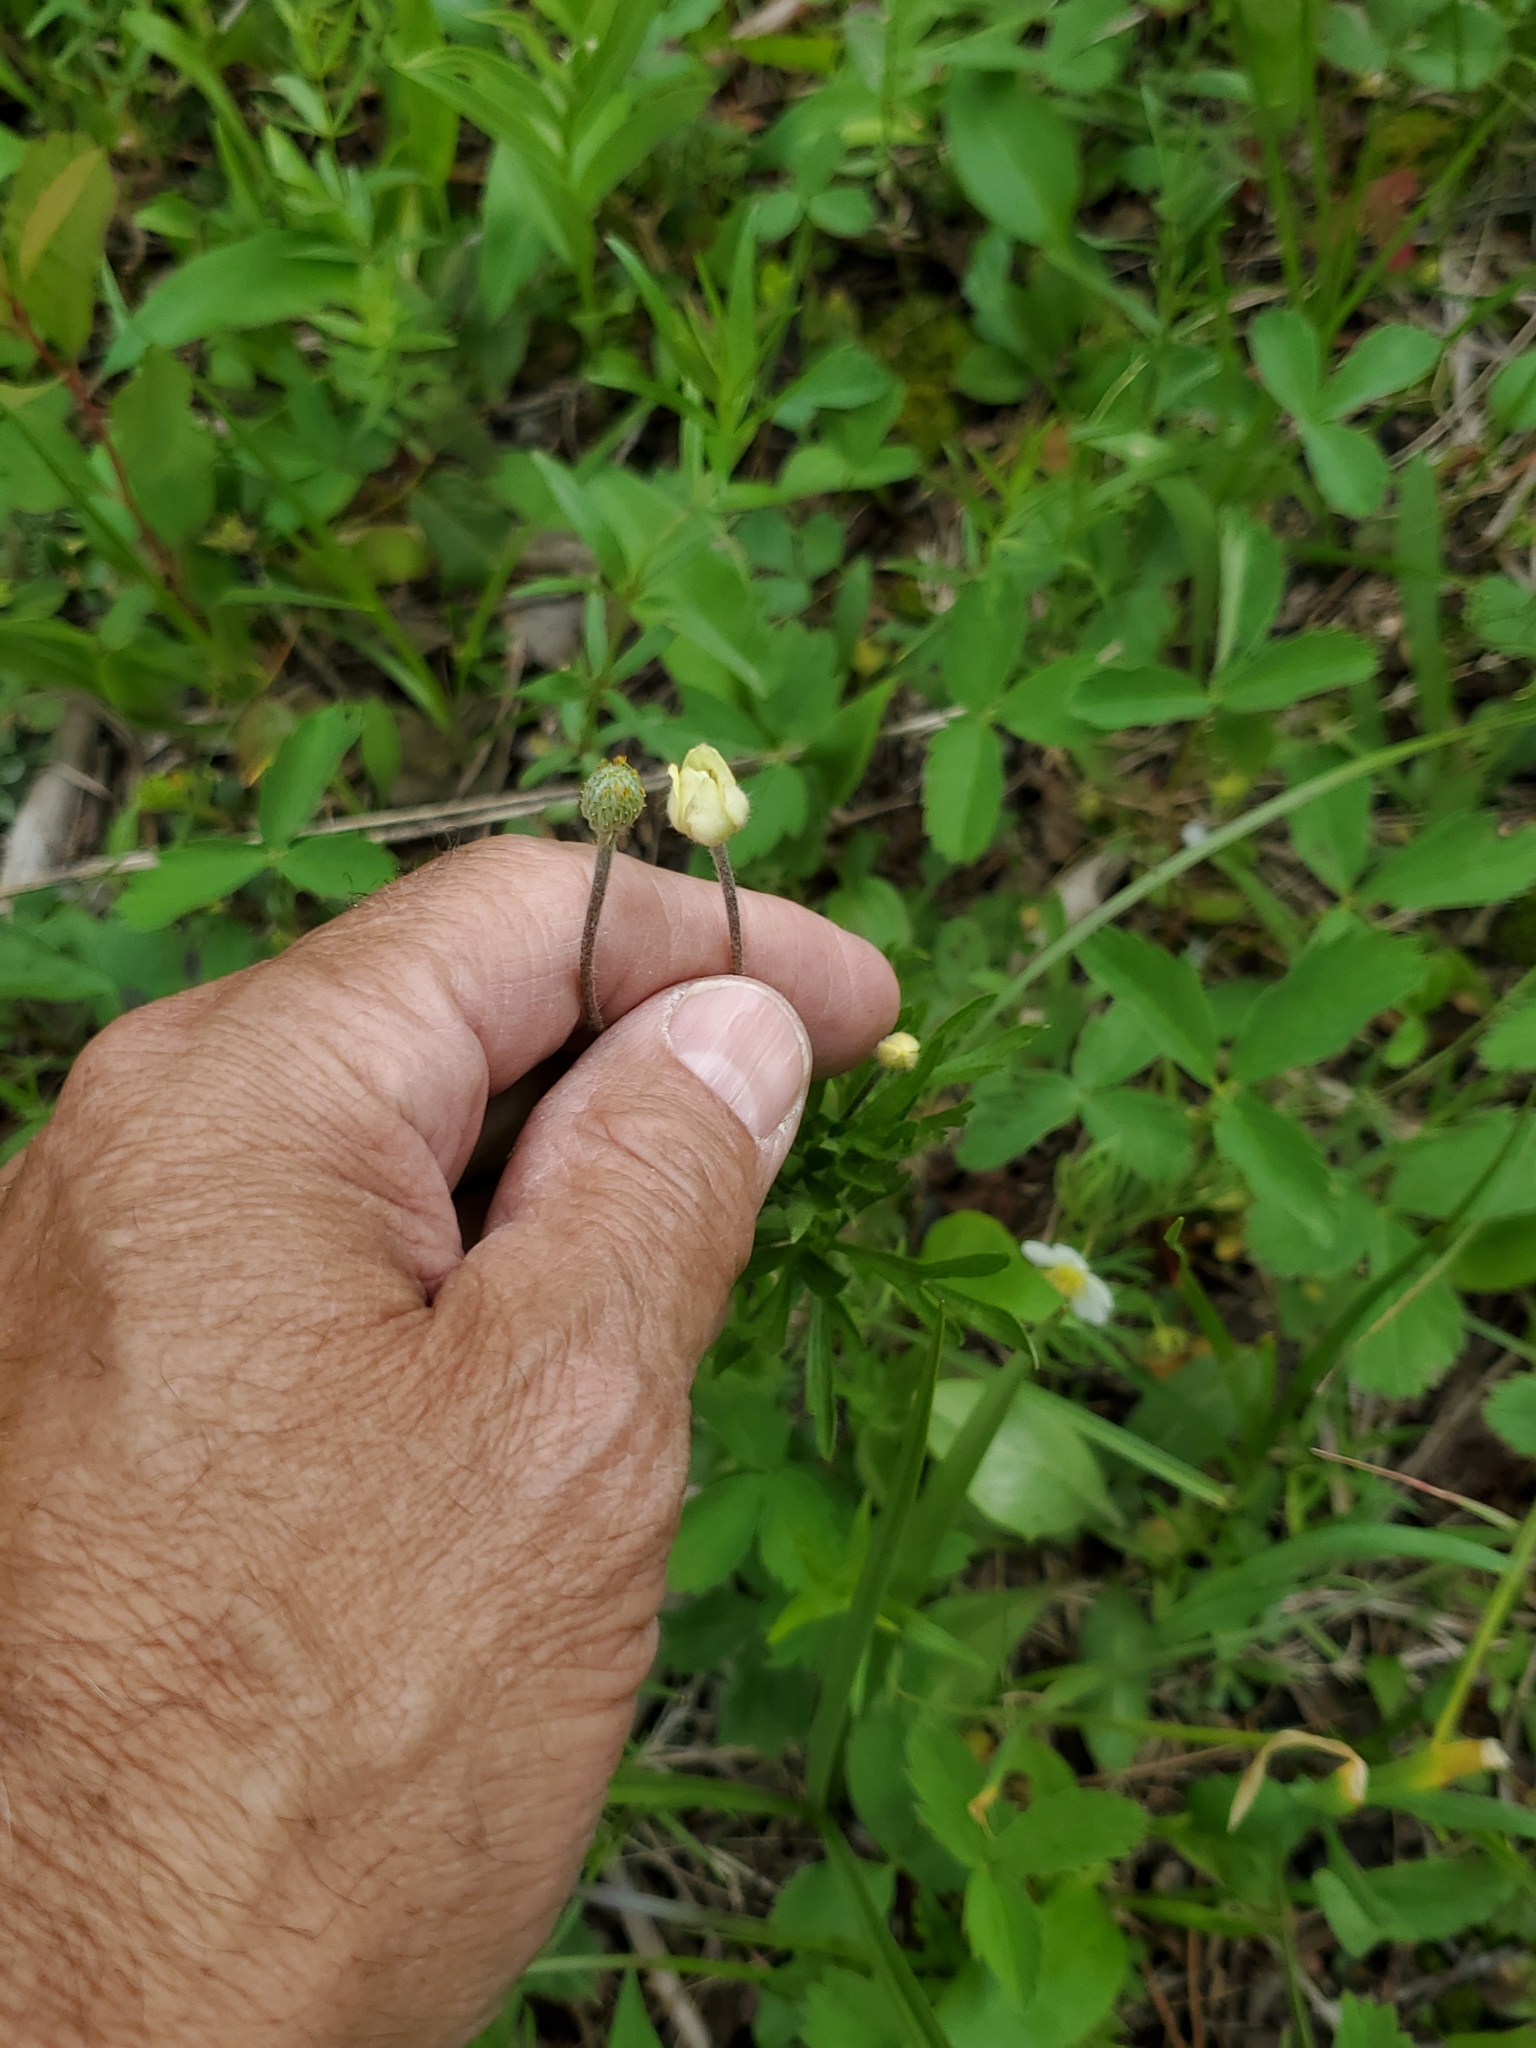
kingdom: Plantae
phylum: Tracheophyta
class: Magnoliopsida
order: Ranunculales
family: Ranunculaceae
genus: Anemone
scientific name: Anemone multifida
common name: Bird's-foot anemone
